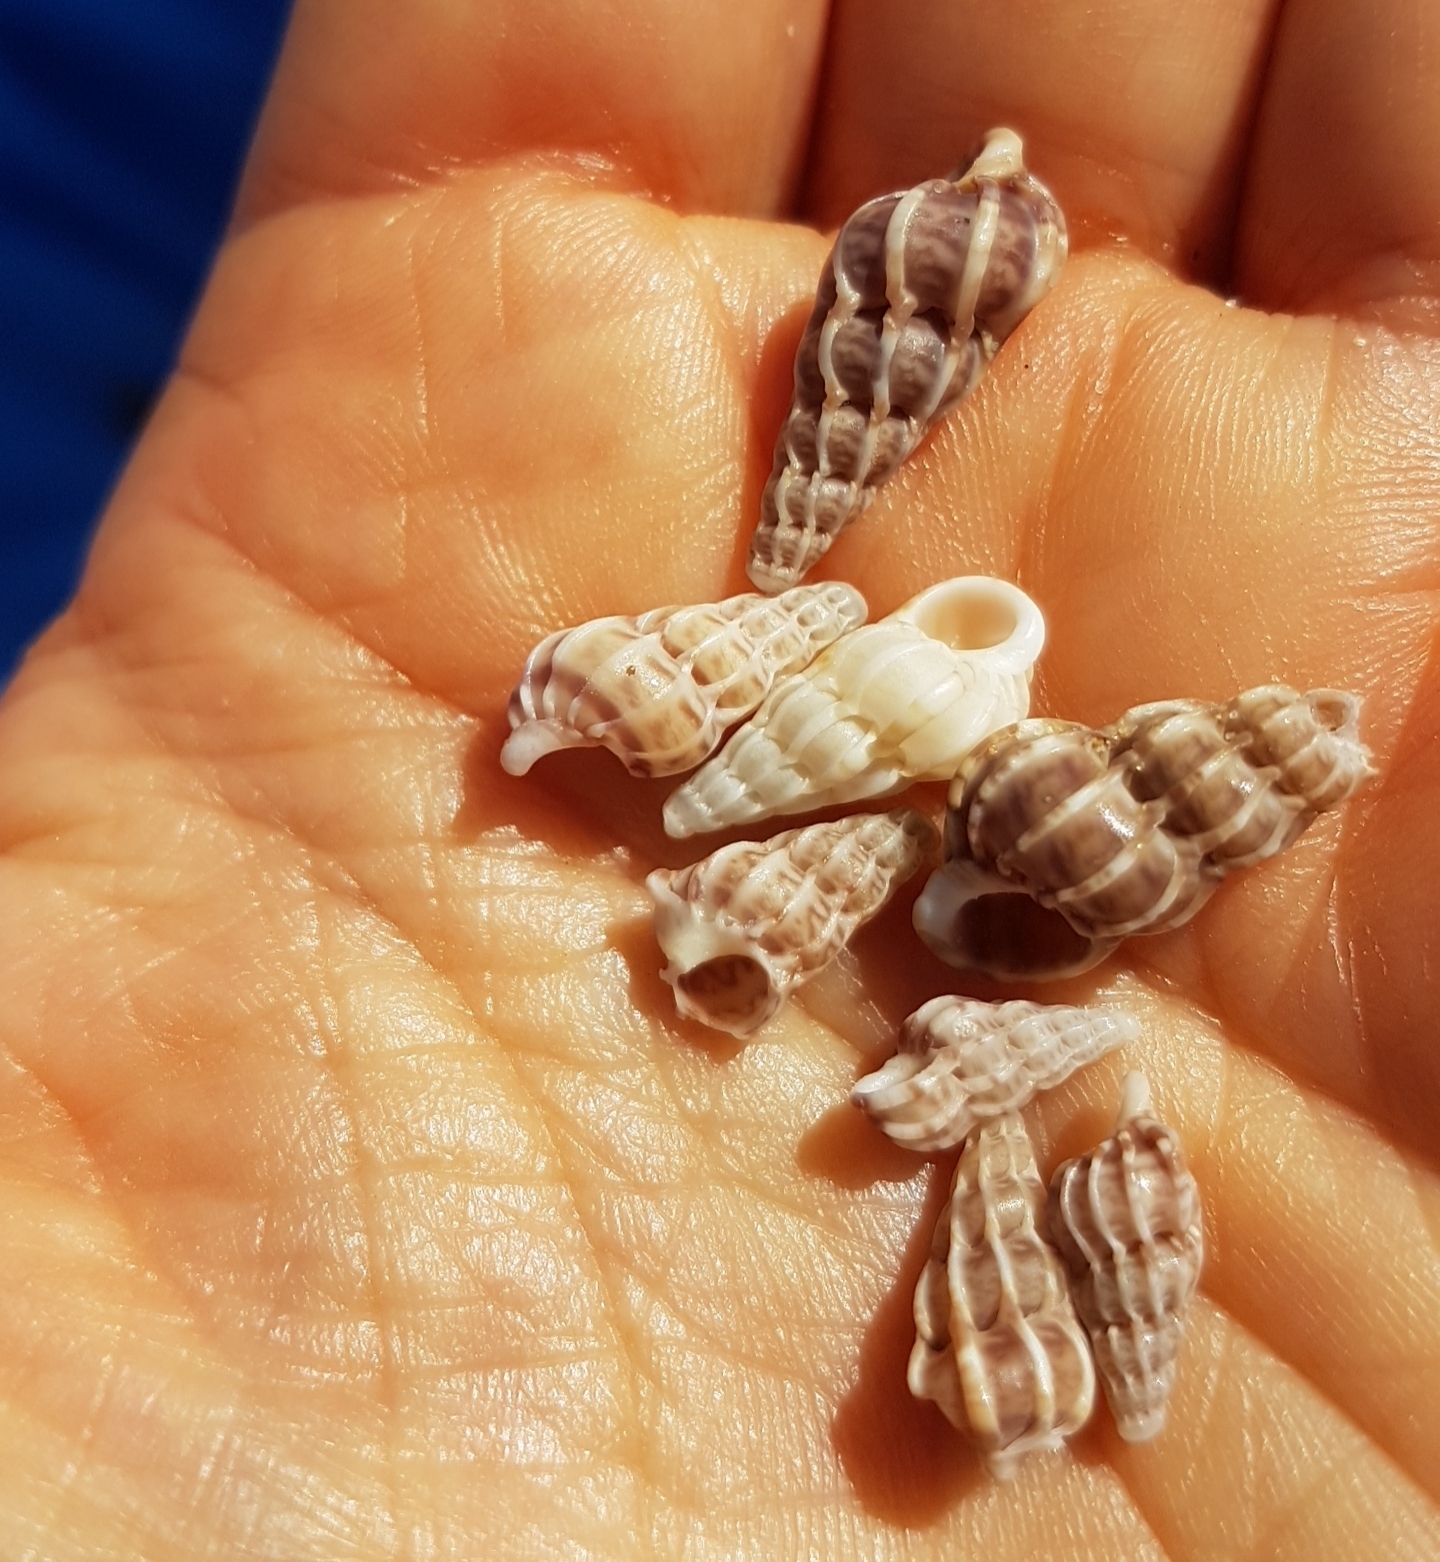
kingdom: Animalia
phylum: Mollusca
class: Gastropoda
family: Epitoniidae
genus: Epitonium
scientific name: Epitonium clathrus
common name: Common wentletrap
